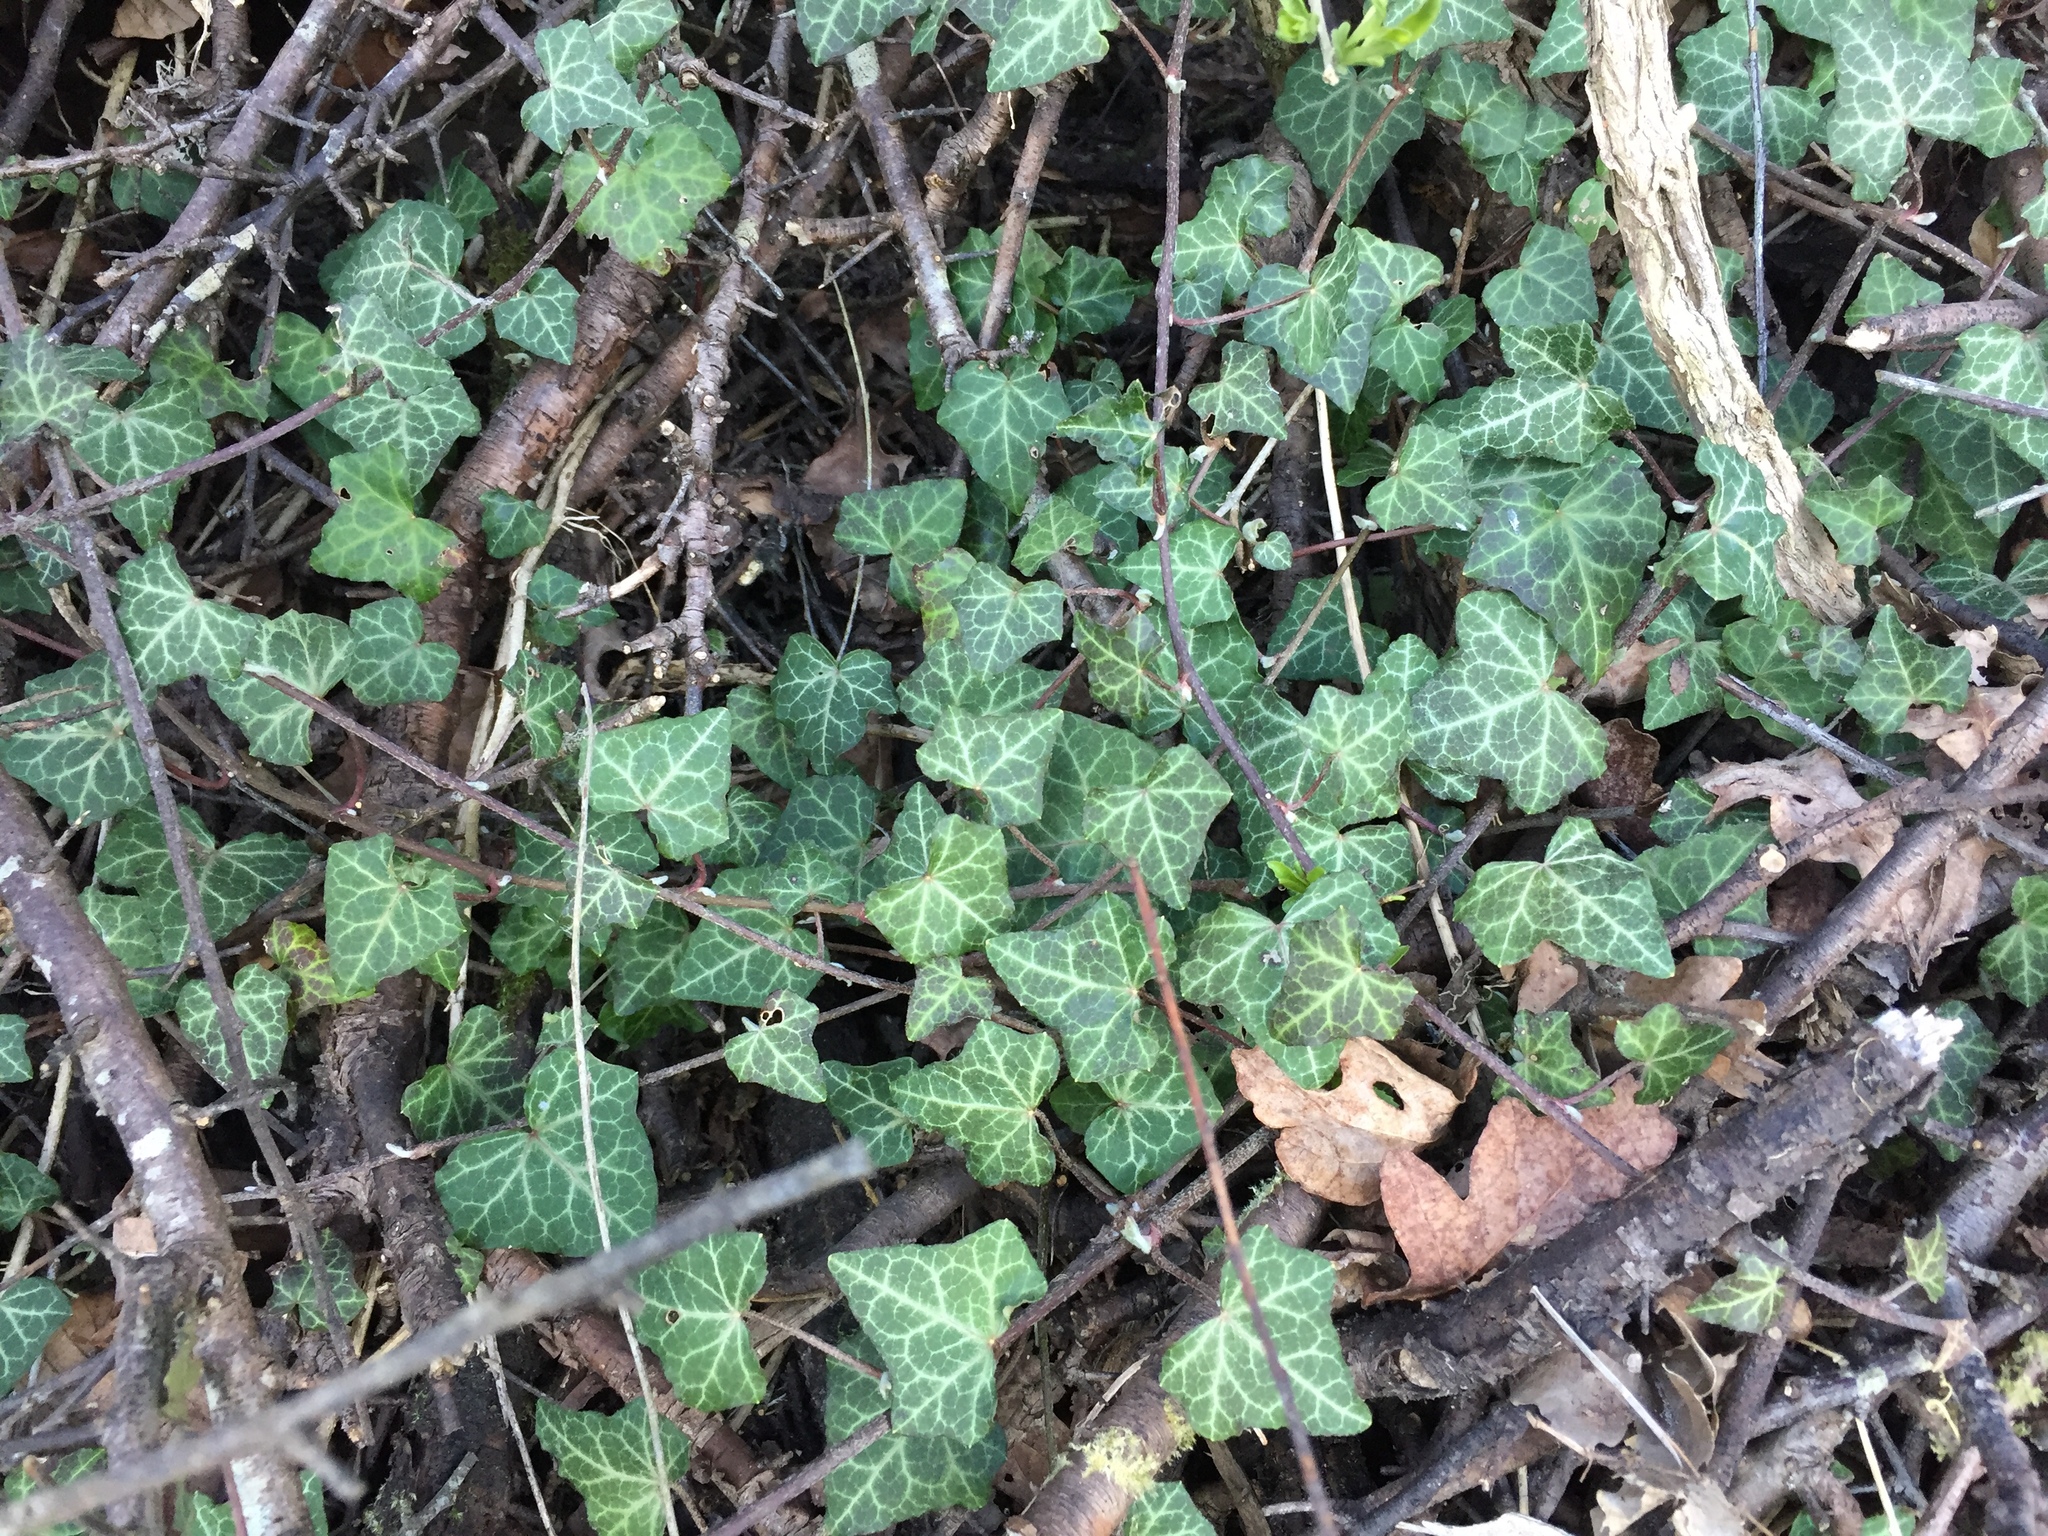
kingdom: Plantae
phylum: Tracheophyta
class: Magnoliopsida
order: Apiales
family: Araliaceae
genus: Hedera
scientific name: Hedera helix
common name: Ivy
